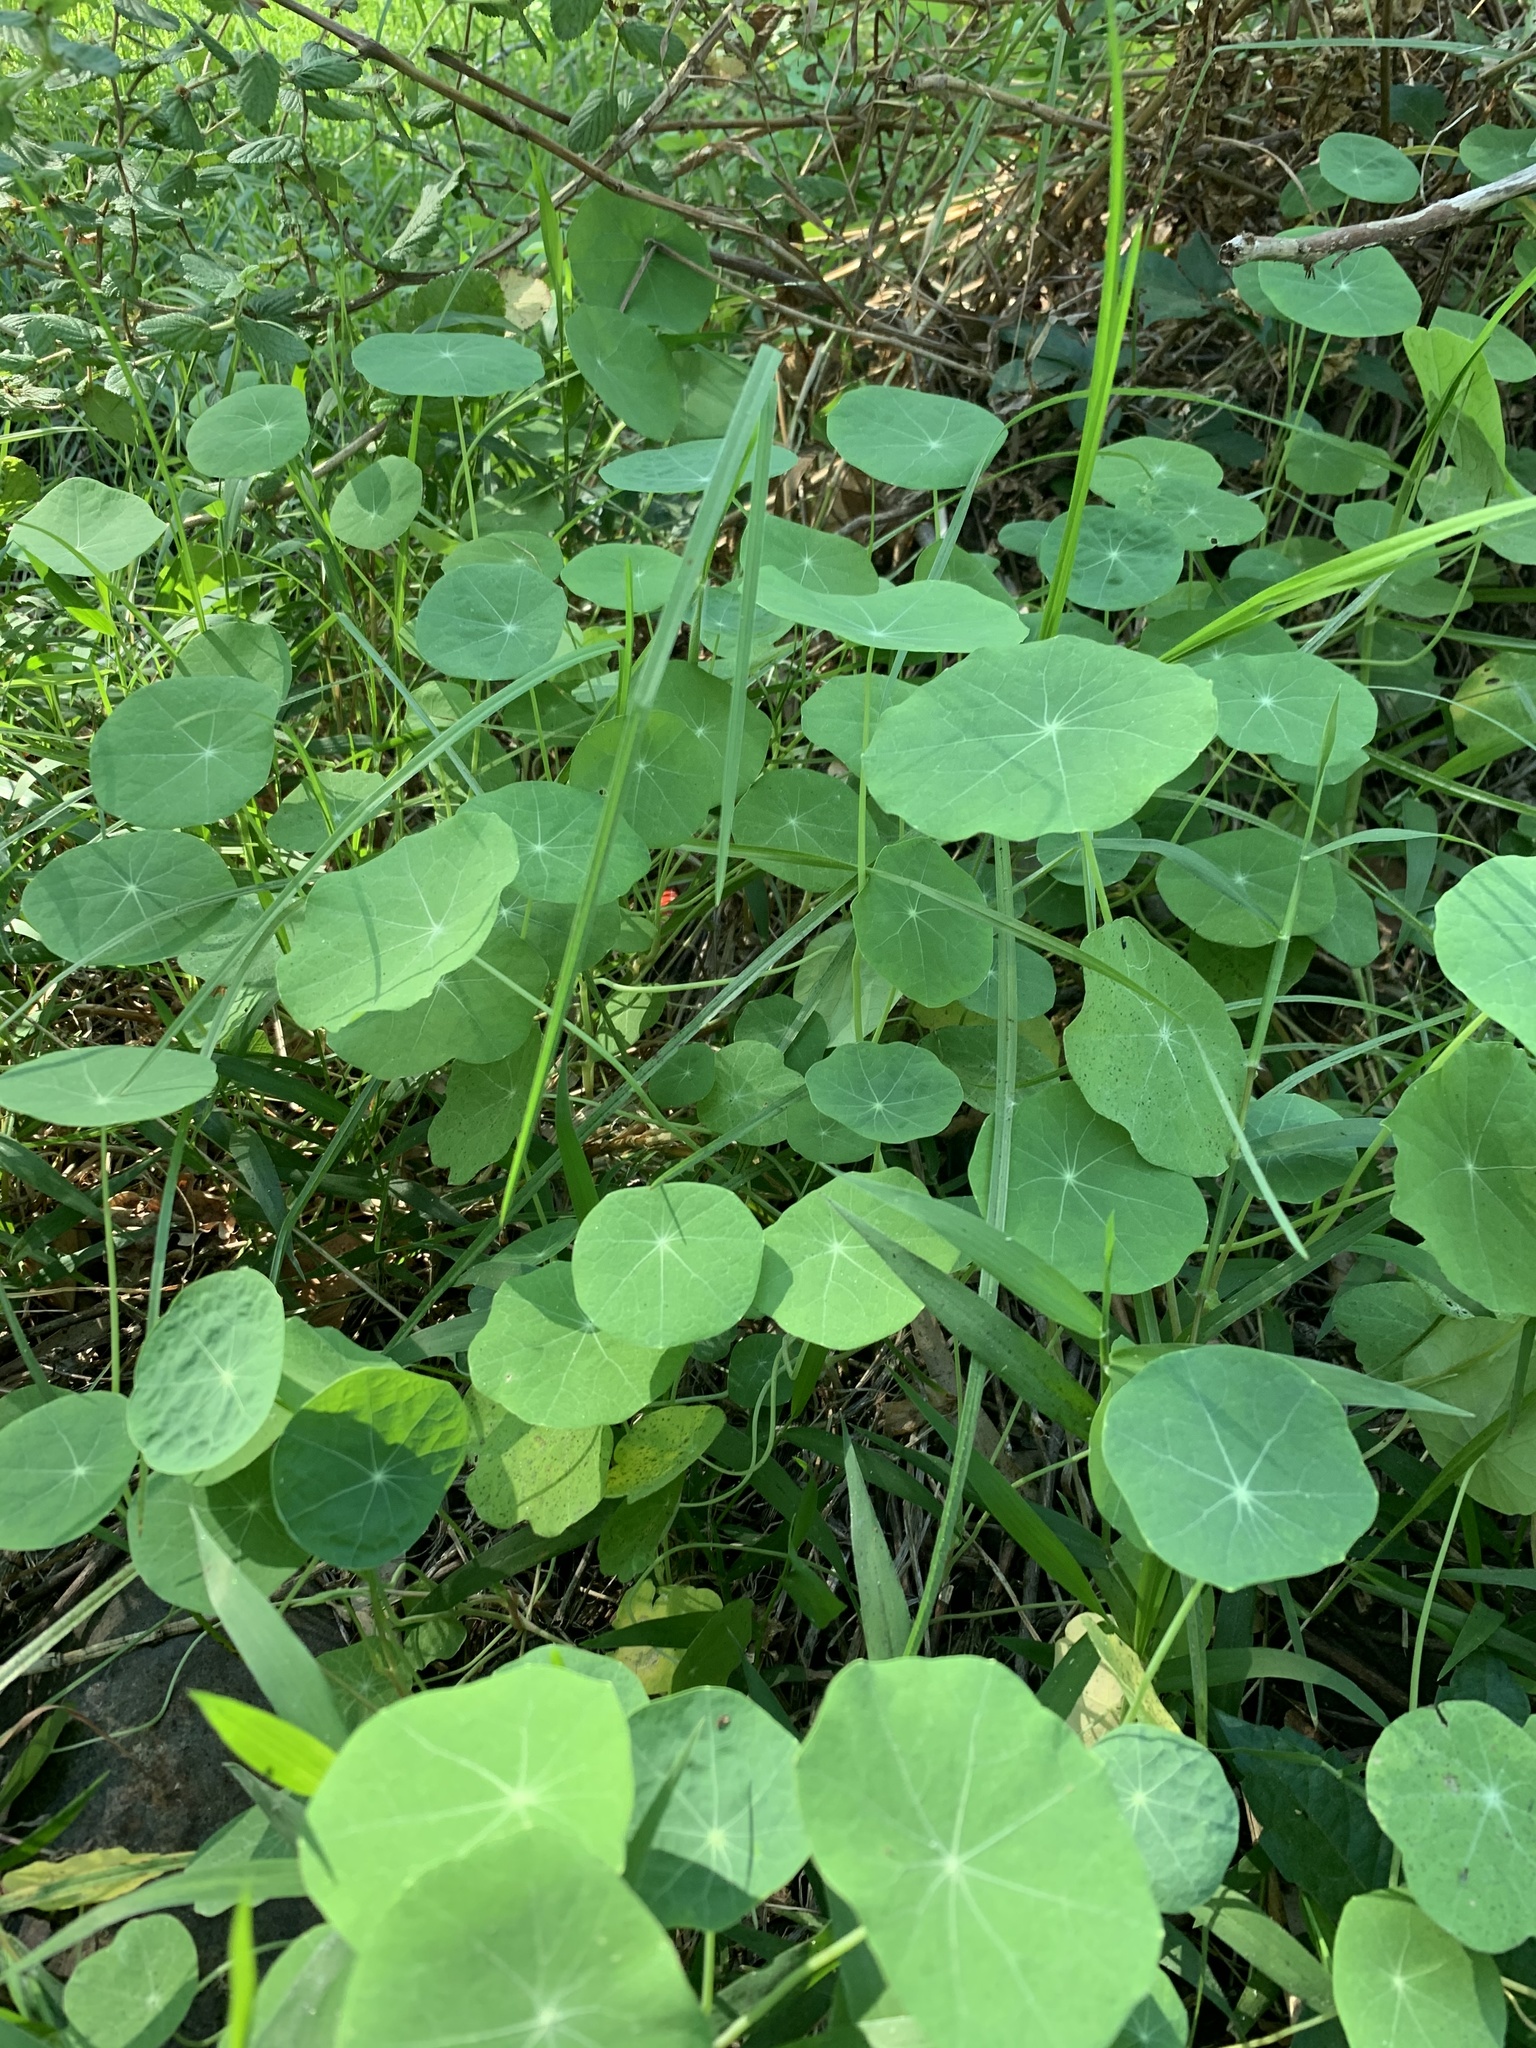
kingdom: Plantae
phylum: Tracheophyta
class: Magnoliopsida
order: Brassicales
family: Tropaeolaceae
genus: Tropaeolum
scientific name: Tropaeolum majus
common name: Nasturtium
